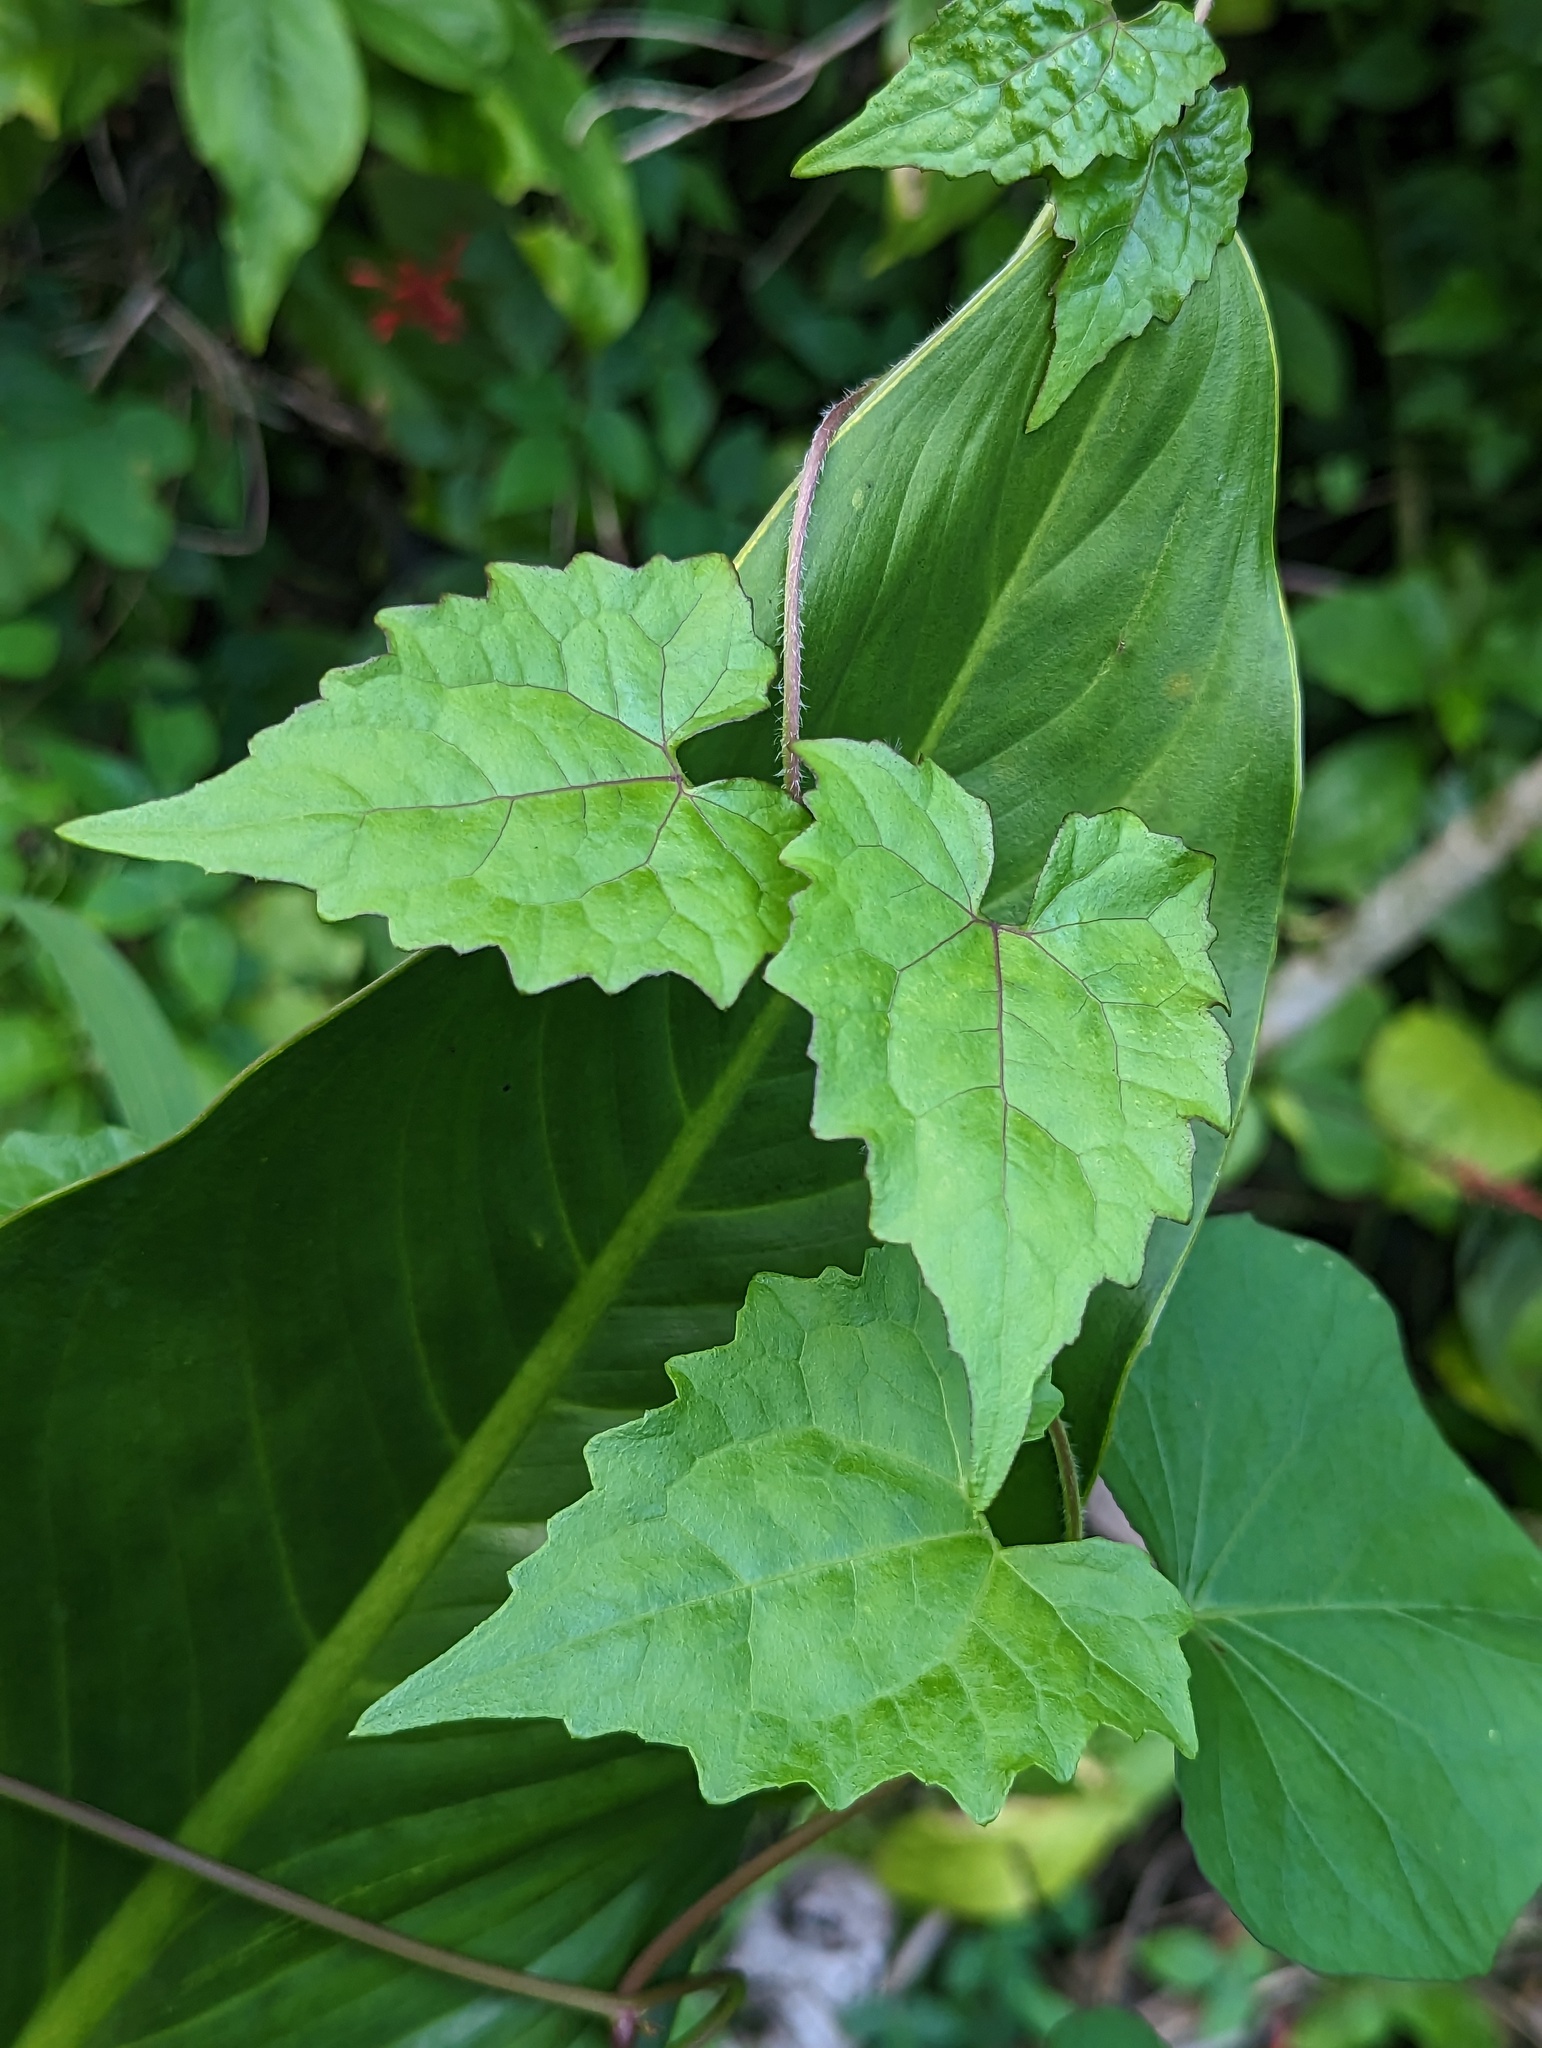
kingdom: Plantae
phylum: Tracheophyta
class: Magnoliopsida
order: Asterales
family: Asteraceae
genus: Mikania
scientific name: Mikania micrantha
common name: Mile-a-minute
